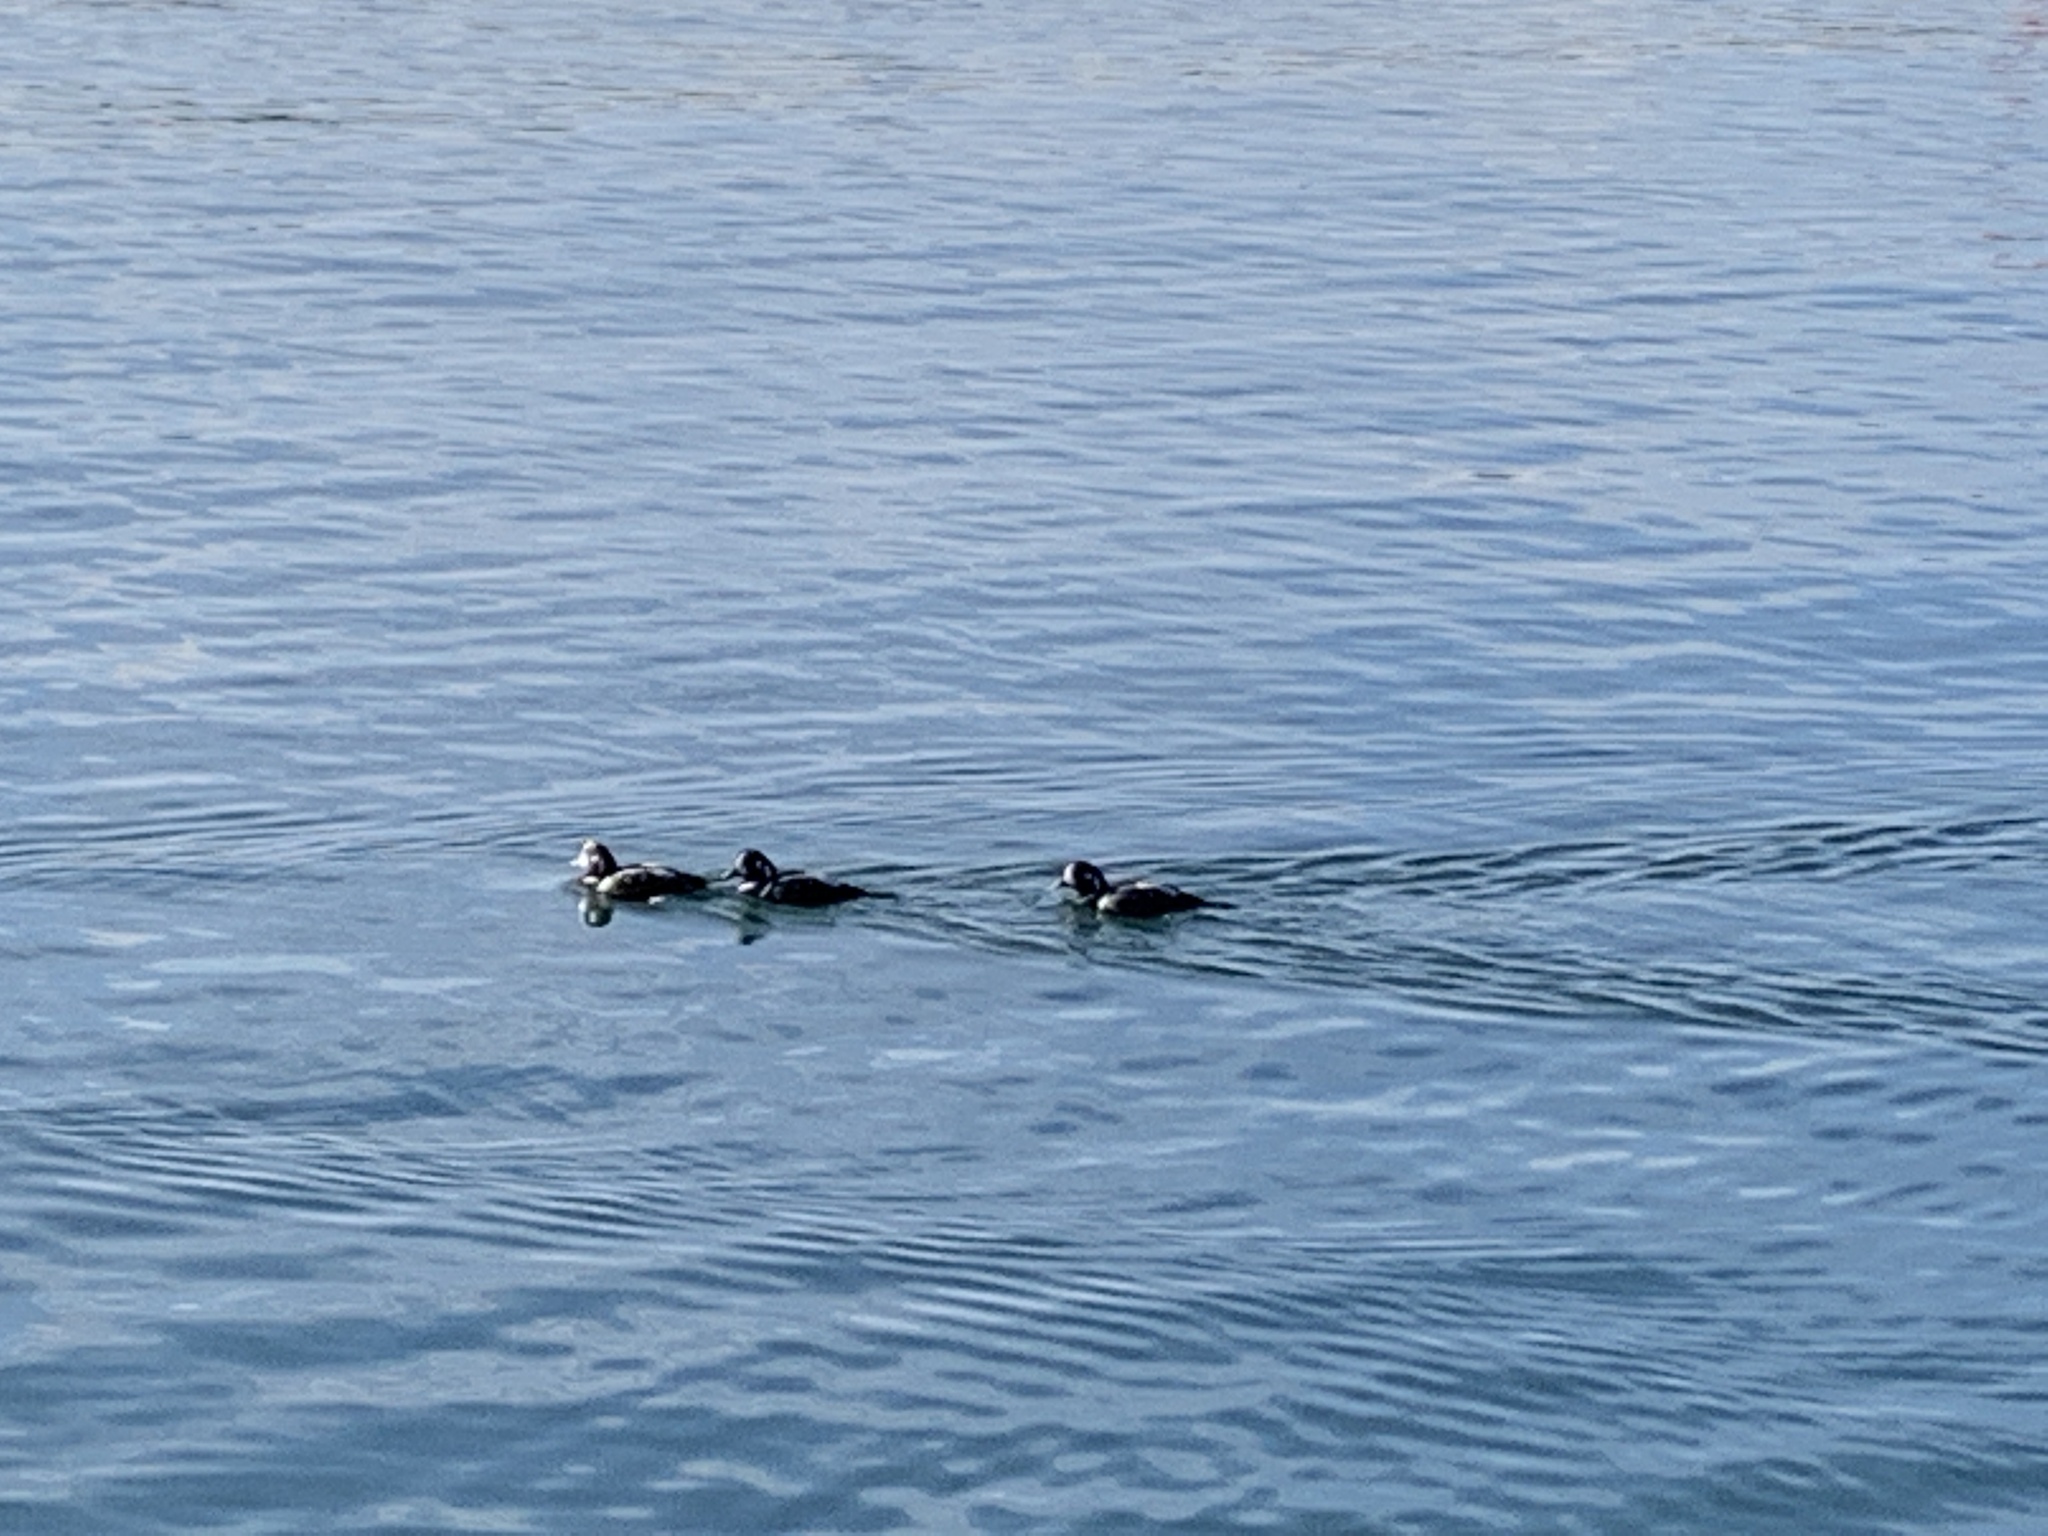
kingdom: Animalia
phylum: Chordata
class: Aves
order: Anseriformes
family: Anatidae
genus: Histrionicus
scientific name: Histrionicus histrionicus
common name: Harlequin duck
